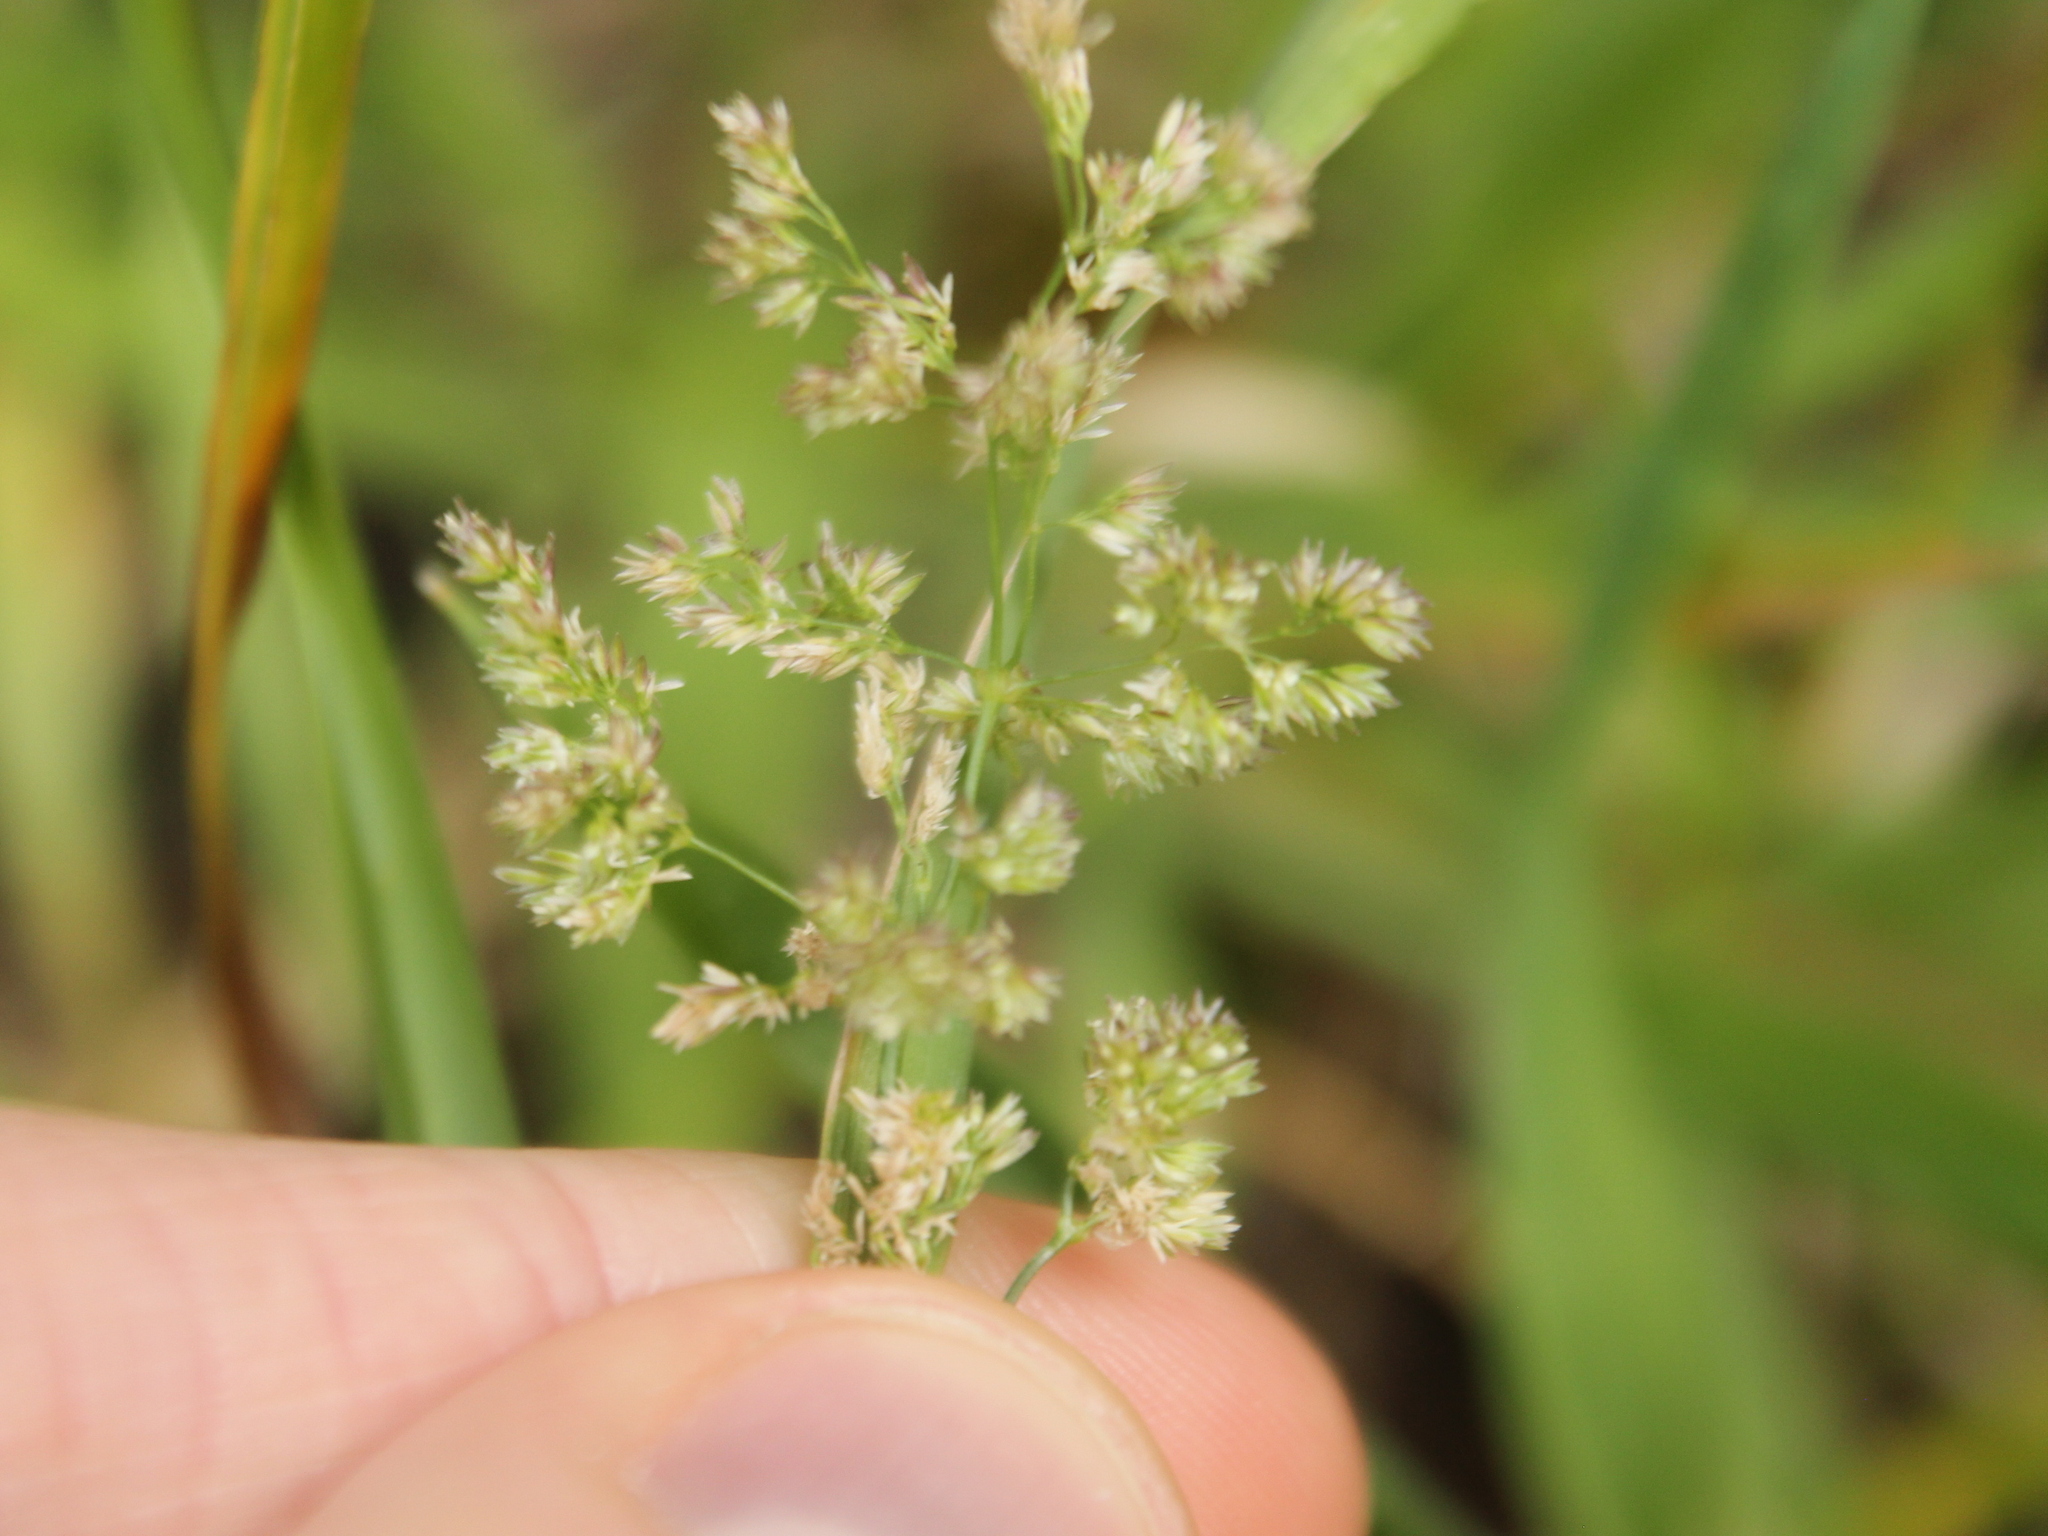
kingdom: Plantae
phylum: Tracheophyta
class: Liliopsida
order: Poales
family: Poaceae
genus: Polypogon
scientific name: Polypogon viridis
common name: Water bent
